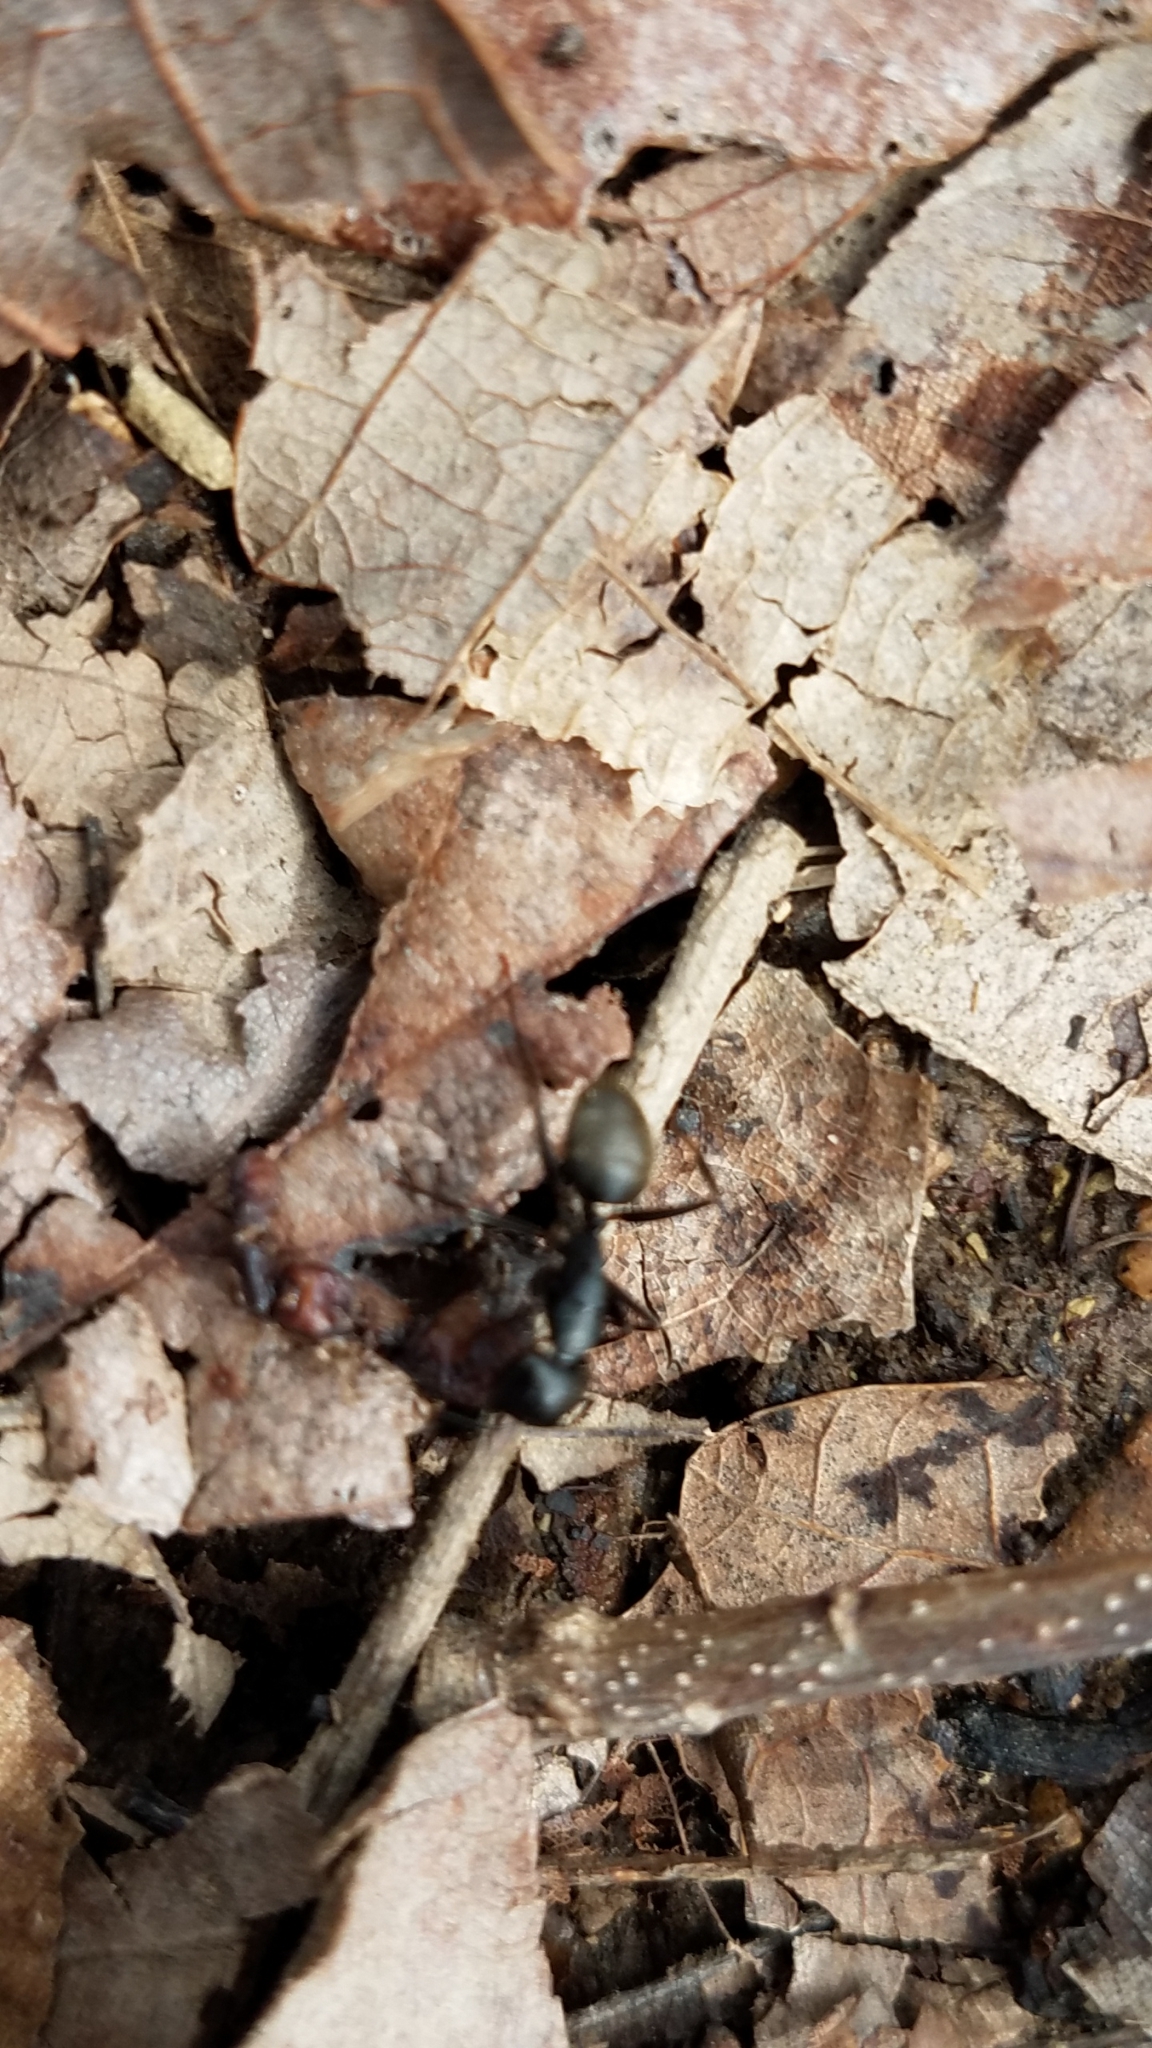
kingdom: Animalia
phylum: Arthropoda
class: Insecta
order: Hymenoptera
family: Formicidae
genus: Camponotus
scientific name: Camponotus pennsylvanicus
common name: Black carpenter ant
